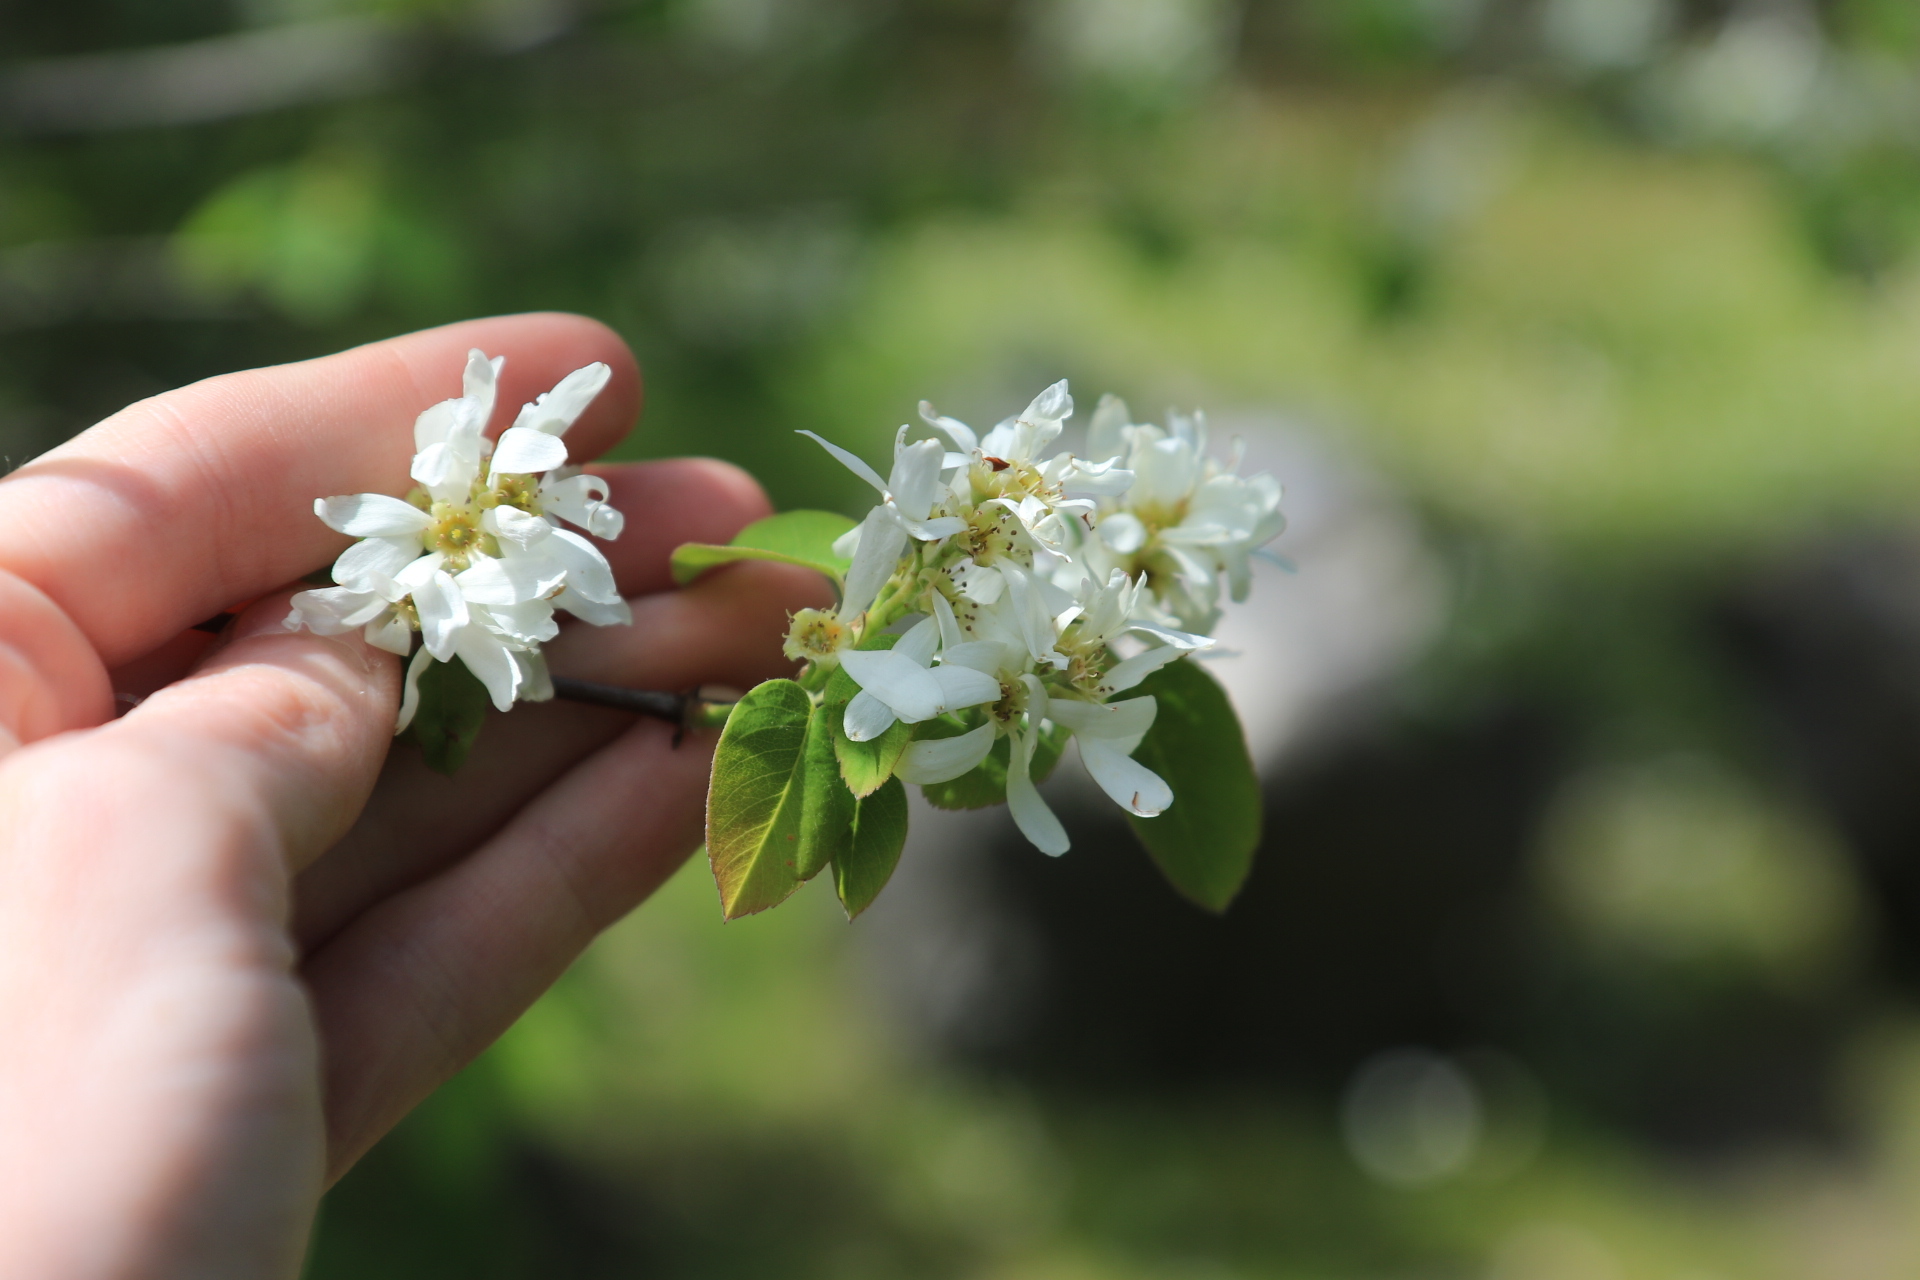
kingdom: Plantae
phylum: Tracheophyta
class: Magnoliopsida
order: Rosales
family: Rosaceae
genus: Amelanchier
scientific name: Amelanchier alnifolia
